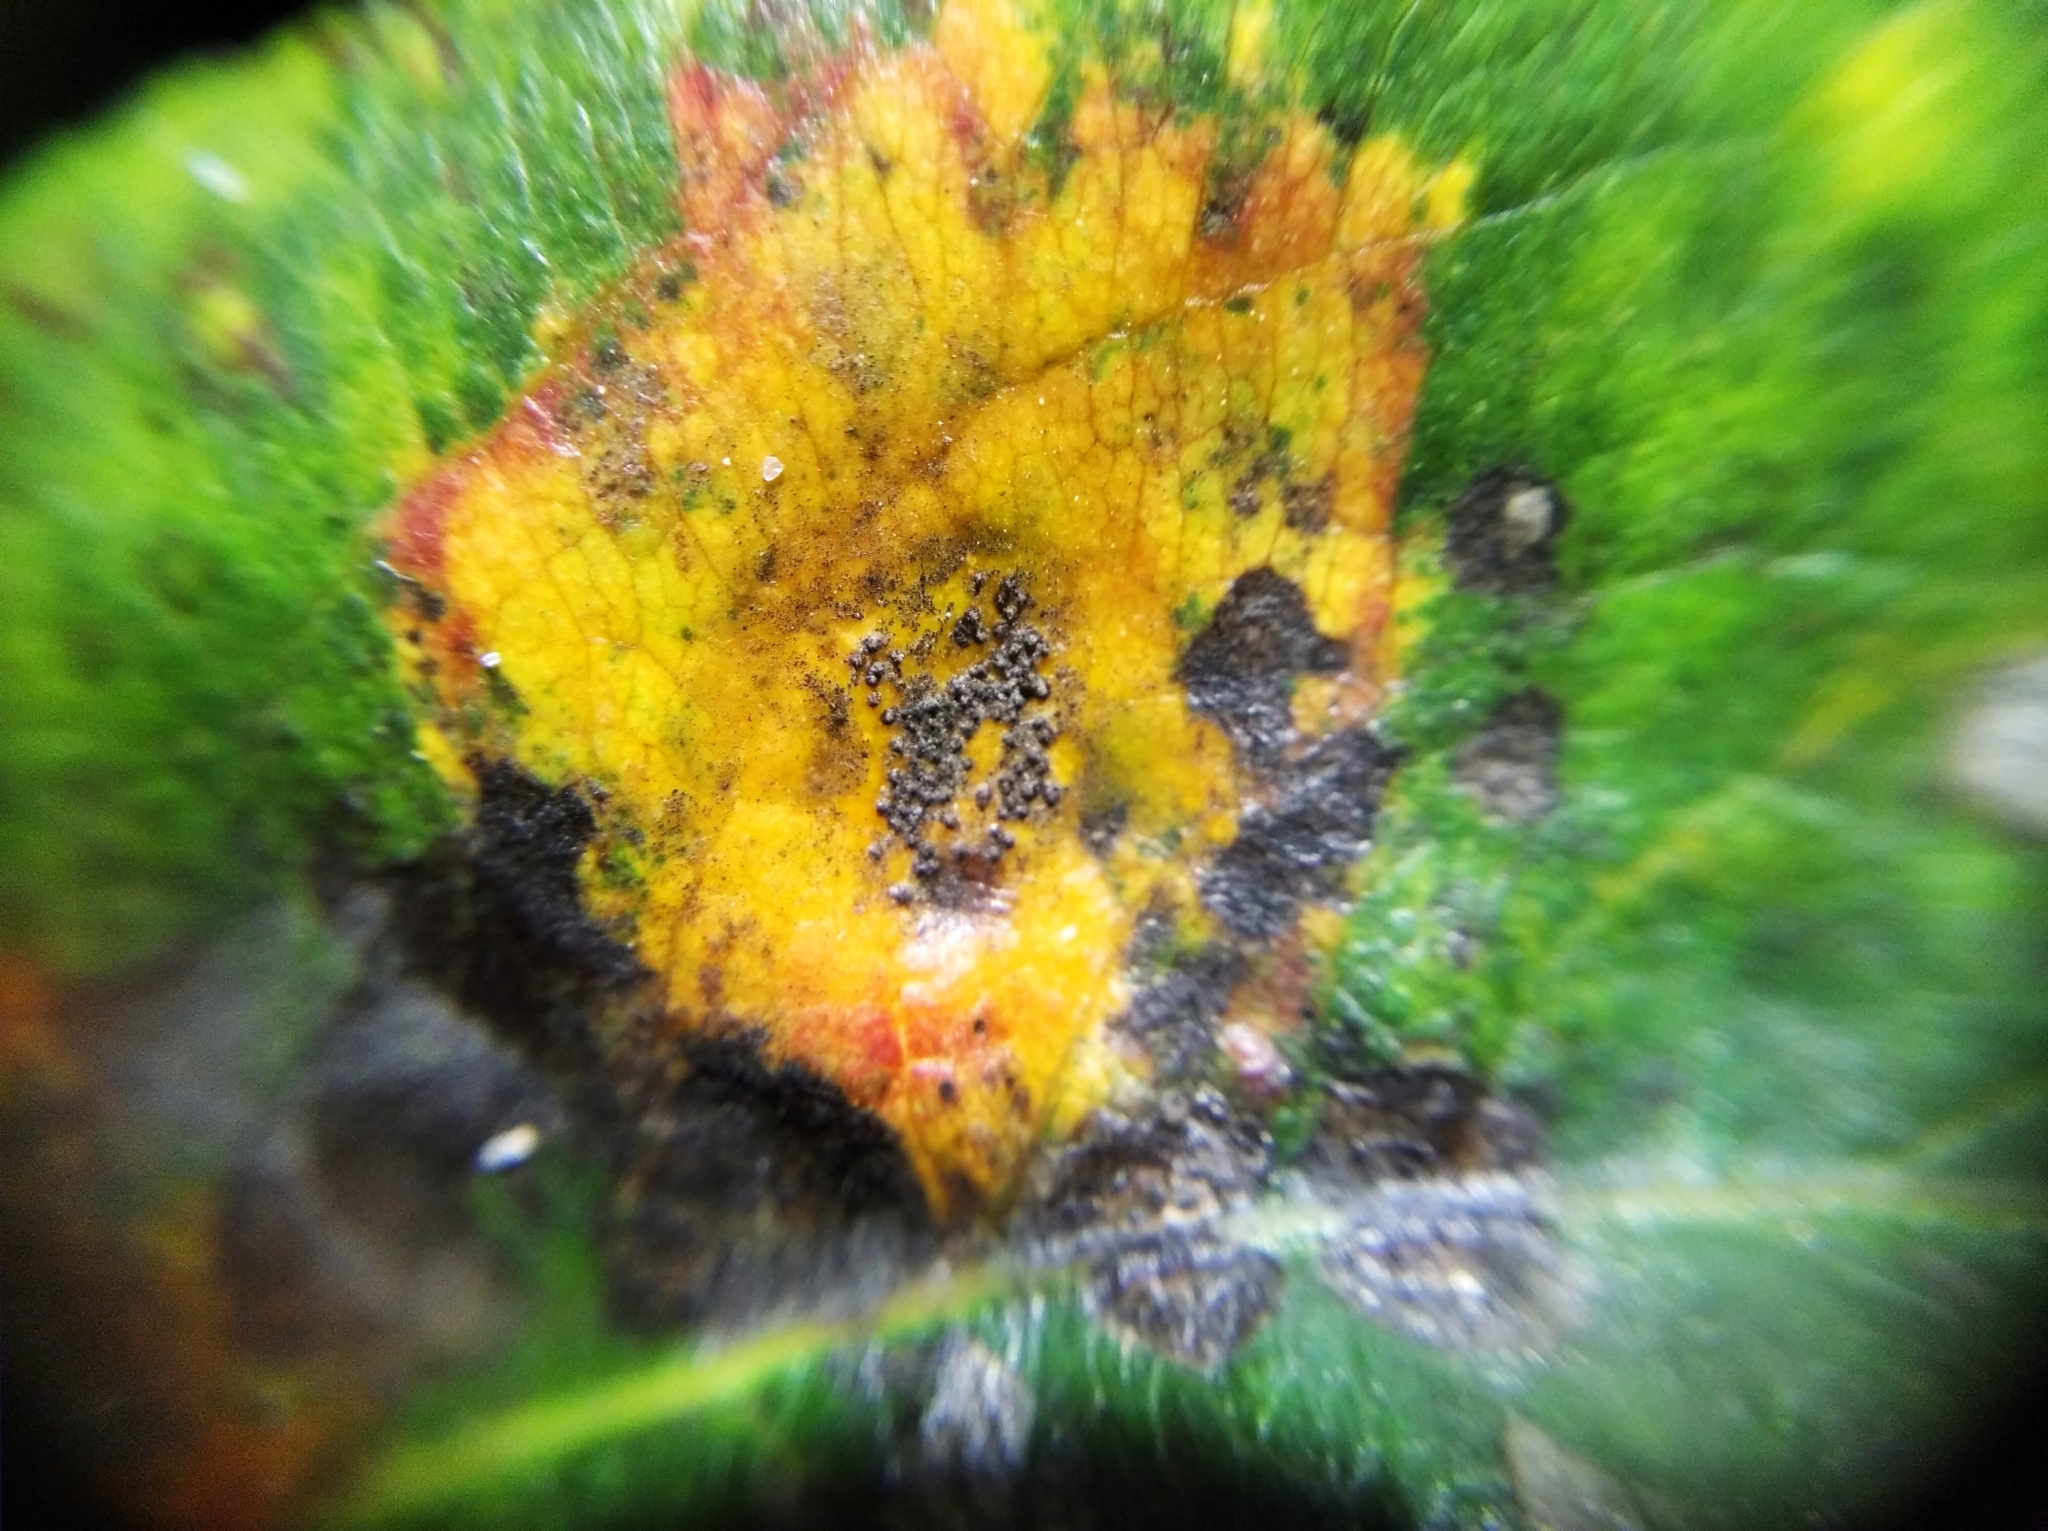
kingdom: Fungi
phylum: Basidiomycota
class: Pucciniomycetes
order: Pucciniales
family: Gymnosporangiaceae
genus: Gymnosporangium
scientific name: Gymnosporangium sabinae
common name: Pear trellis rust fungus
